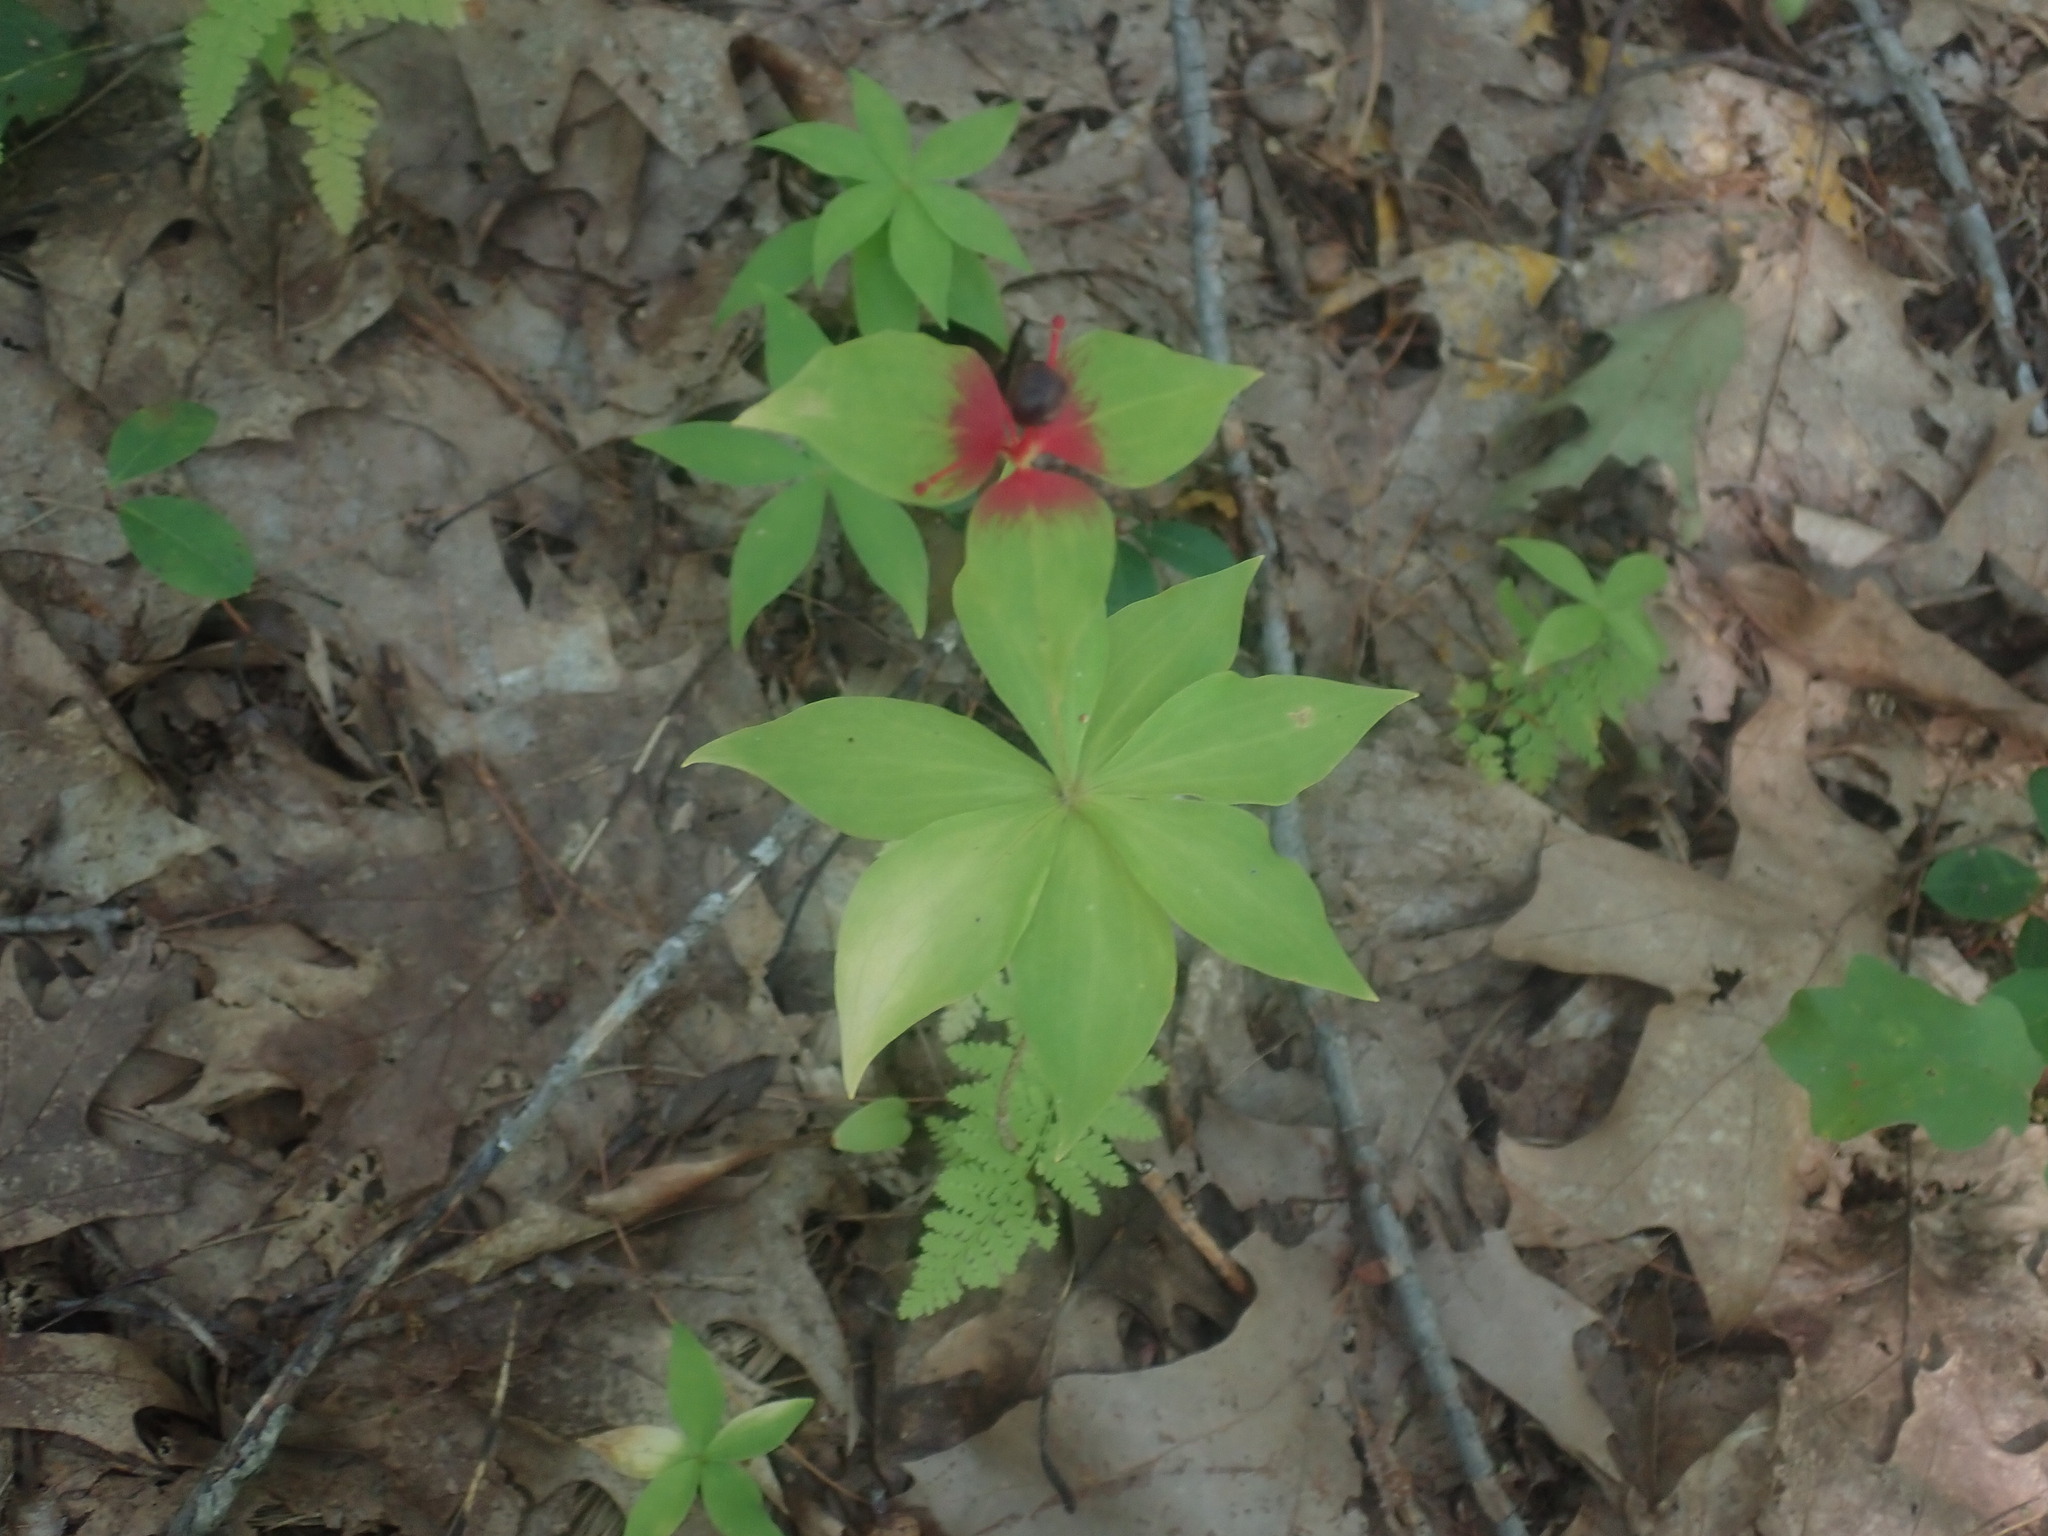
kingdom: Plantae
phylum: Tracheophyta
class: Liliopsida
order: Liliales
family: Liliaceae
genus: Medeola
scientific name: Medeola virginiana
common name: Indian cucumber-root
